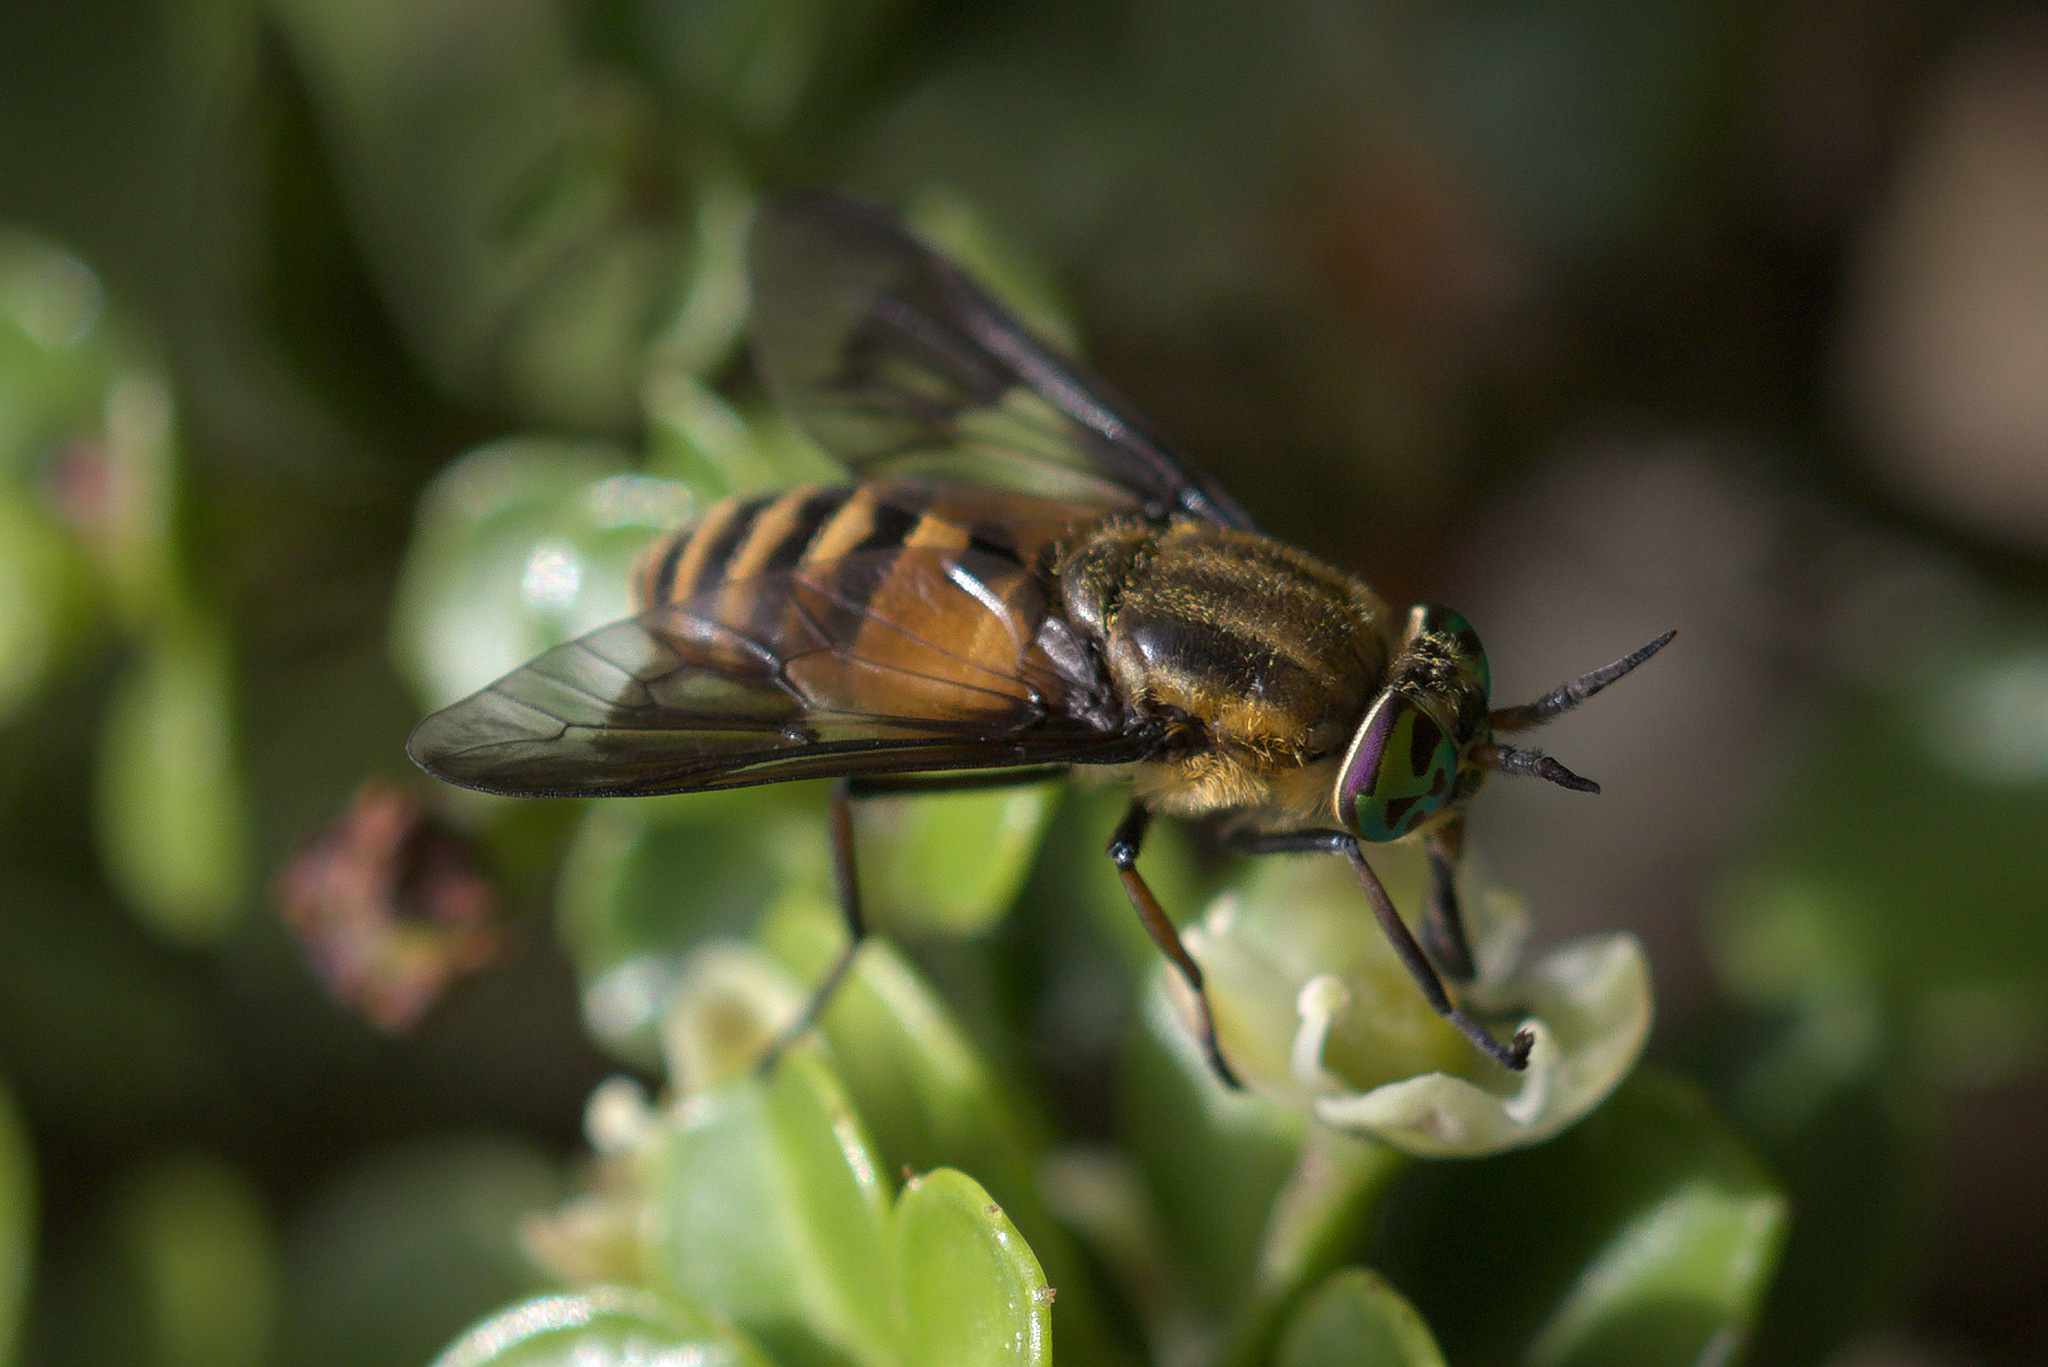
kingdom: Animalia
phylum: Arthropoda
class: Insecta
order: Diptera
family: Tabanidae
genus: Chrysops
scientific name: Chrysops asbestos
